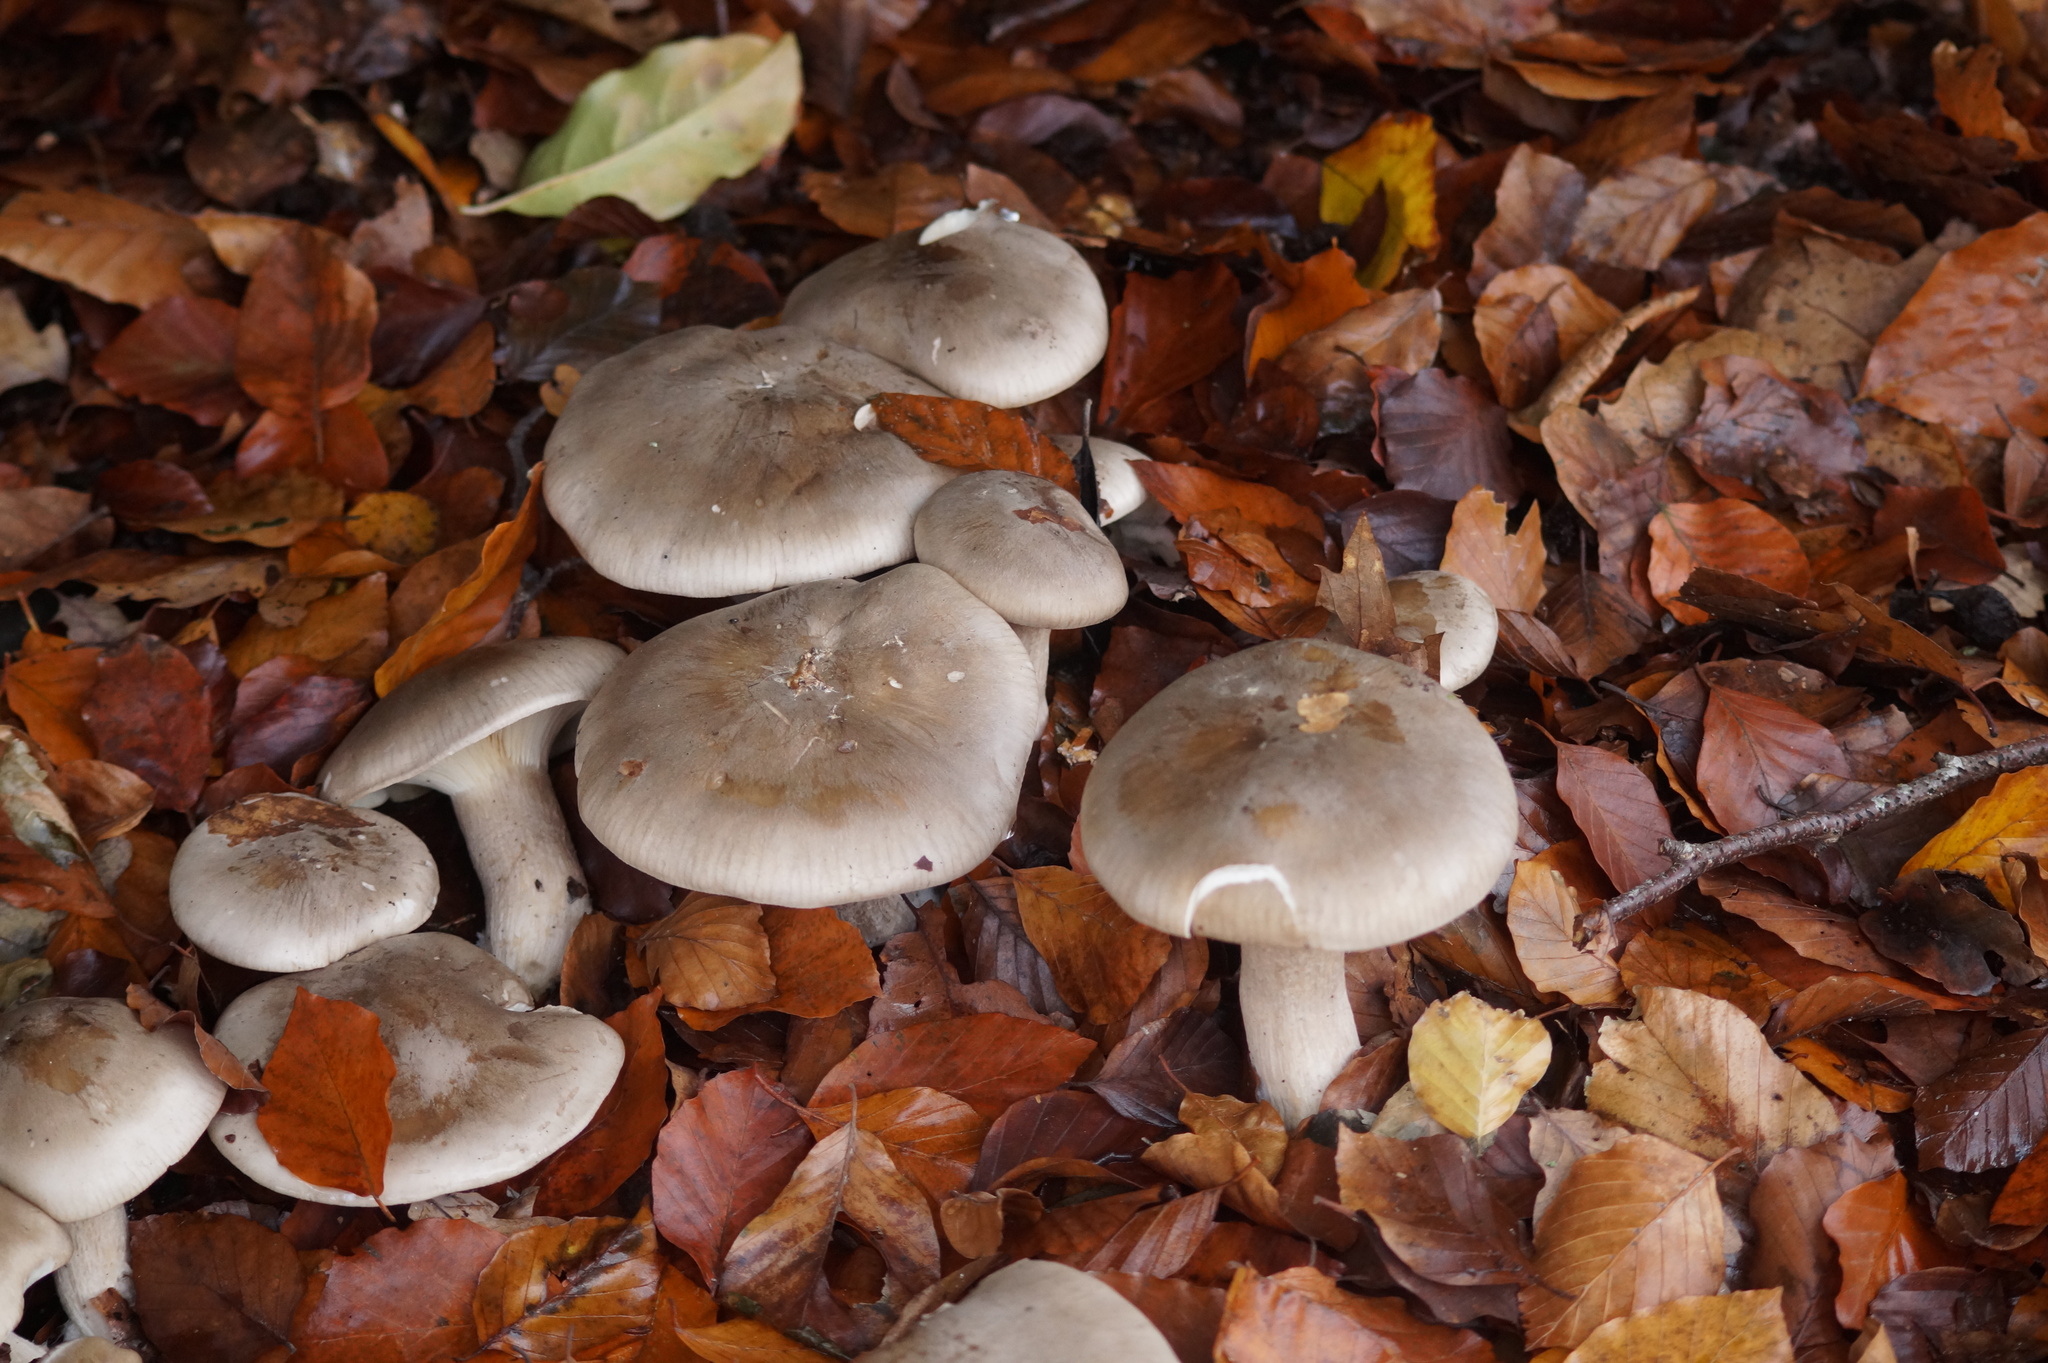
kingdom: Fungi
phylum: Basidiomycota
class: Agaricomycetes
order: Agaricales
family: Tricholomataceae
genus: Clitocybe
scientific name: Clitocybe nebularis
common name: Clouded agaric
